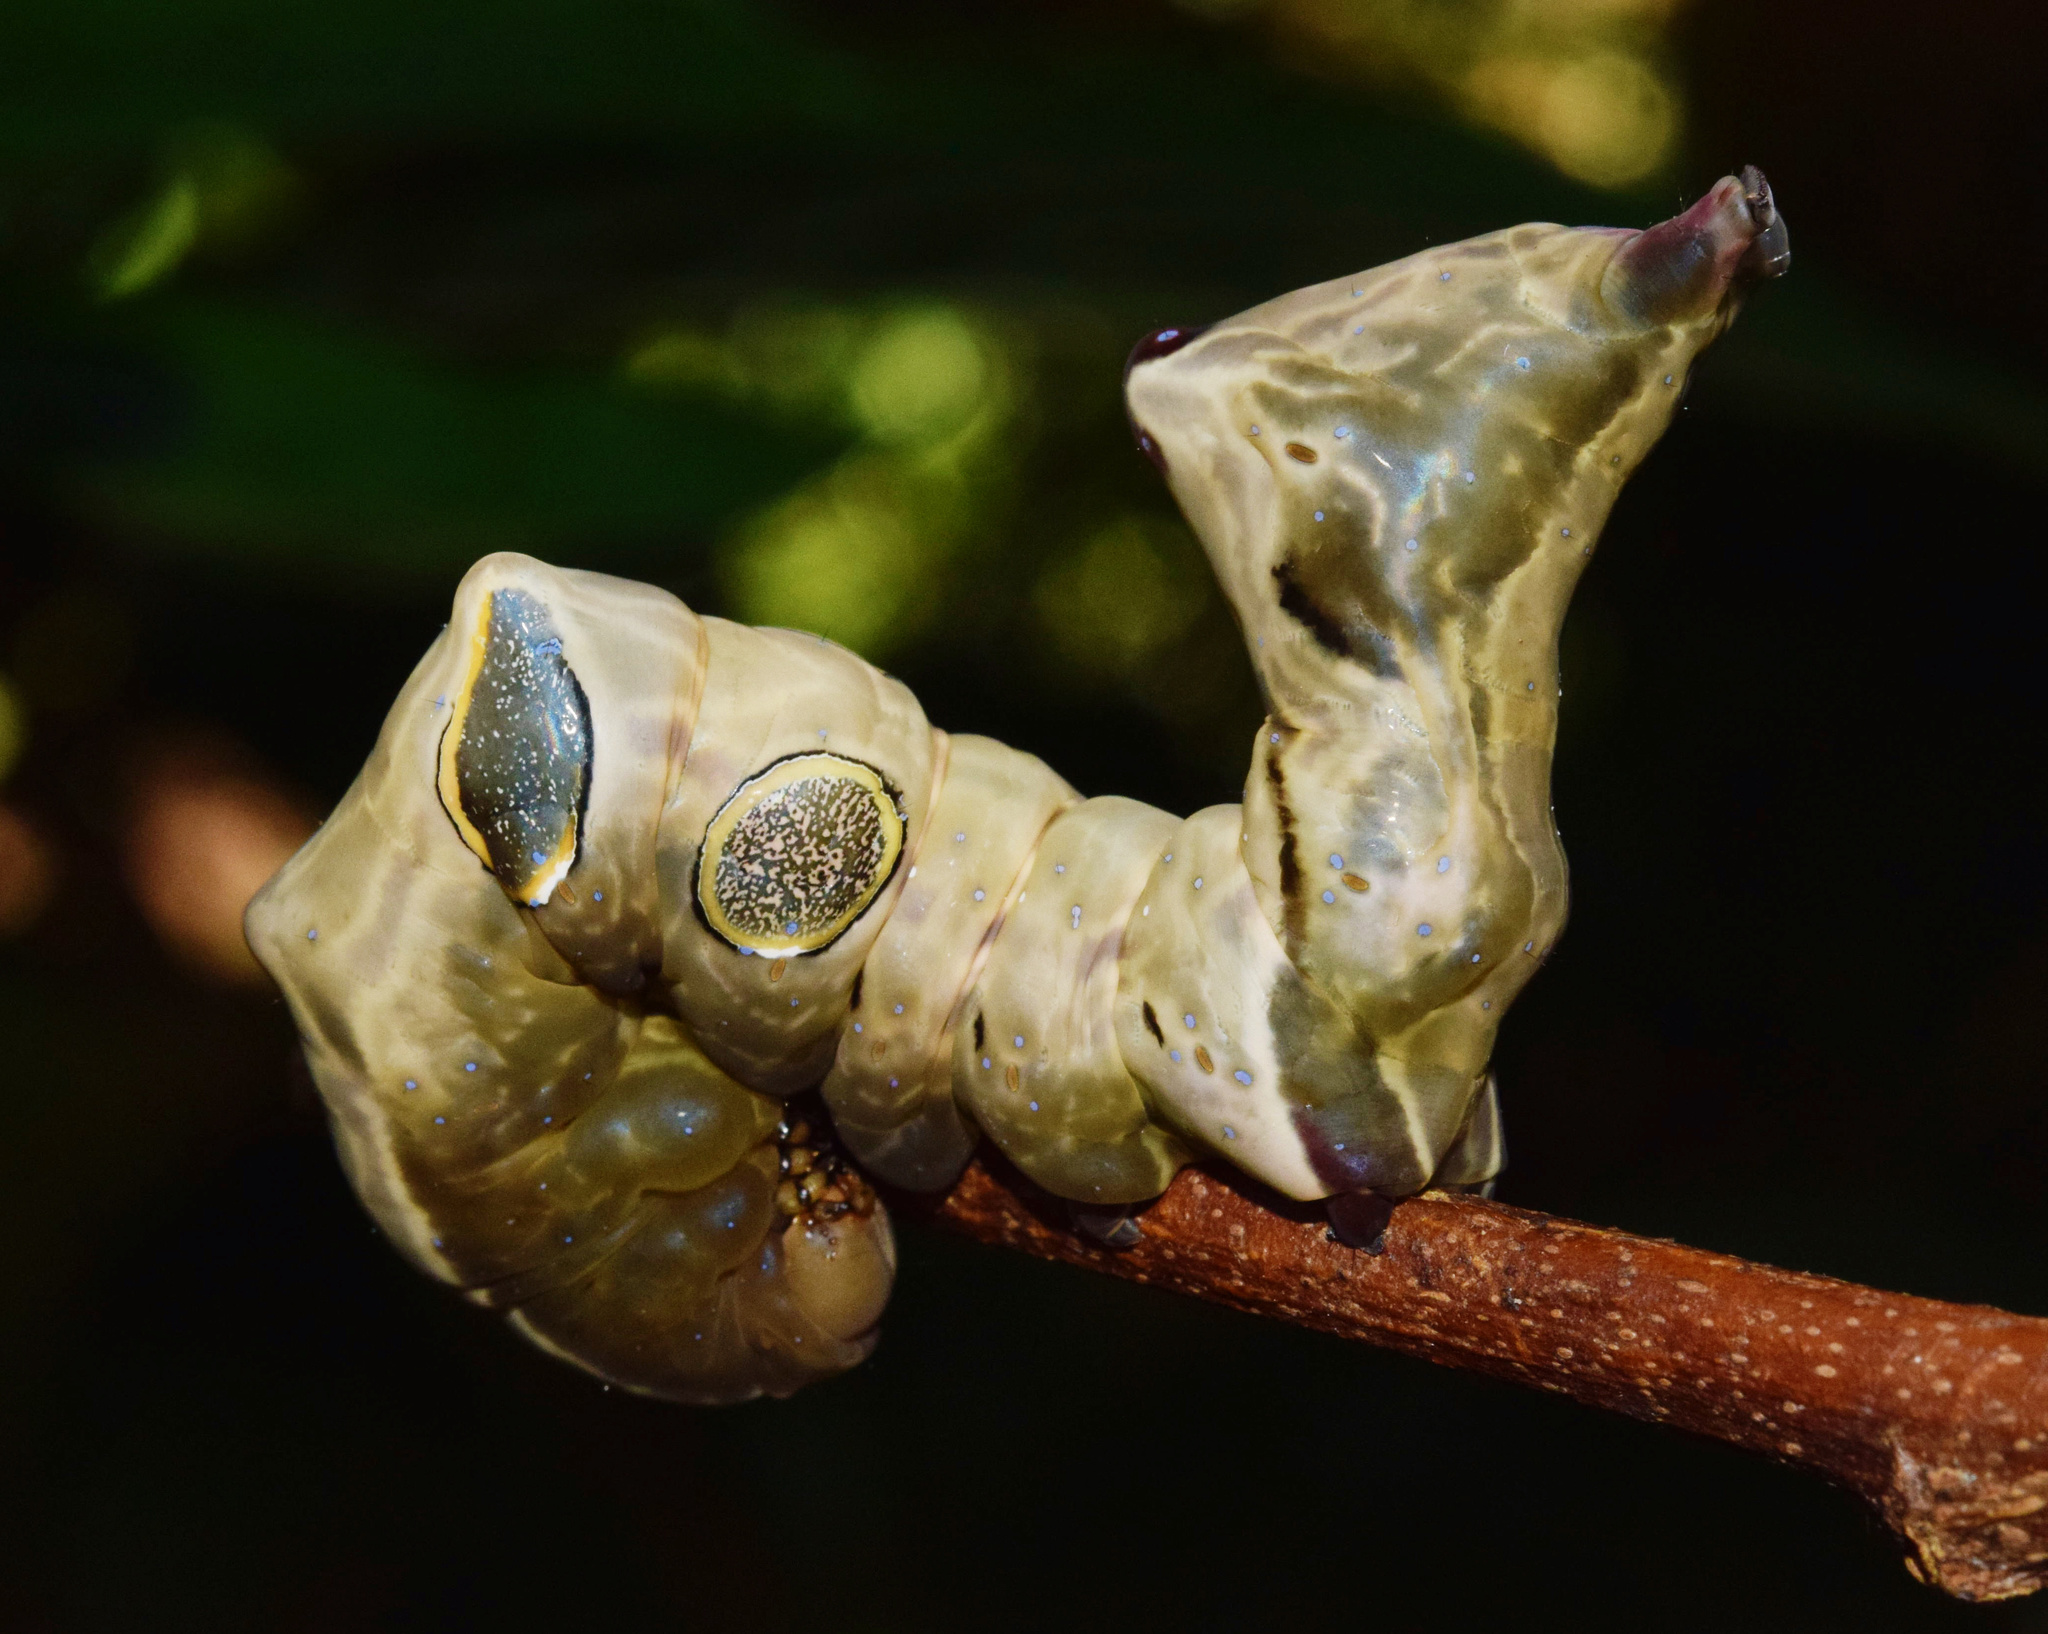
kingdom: Animalia
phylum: Arthropoda
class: Insecta
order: Lepidoptera
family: Erebidae
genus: Eudocima
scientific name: Eudocima divitiosa
